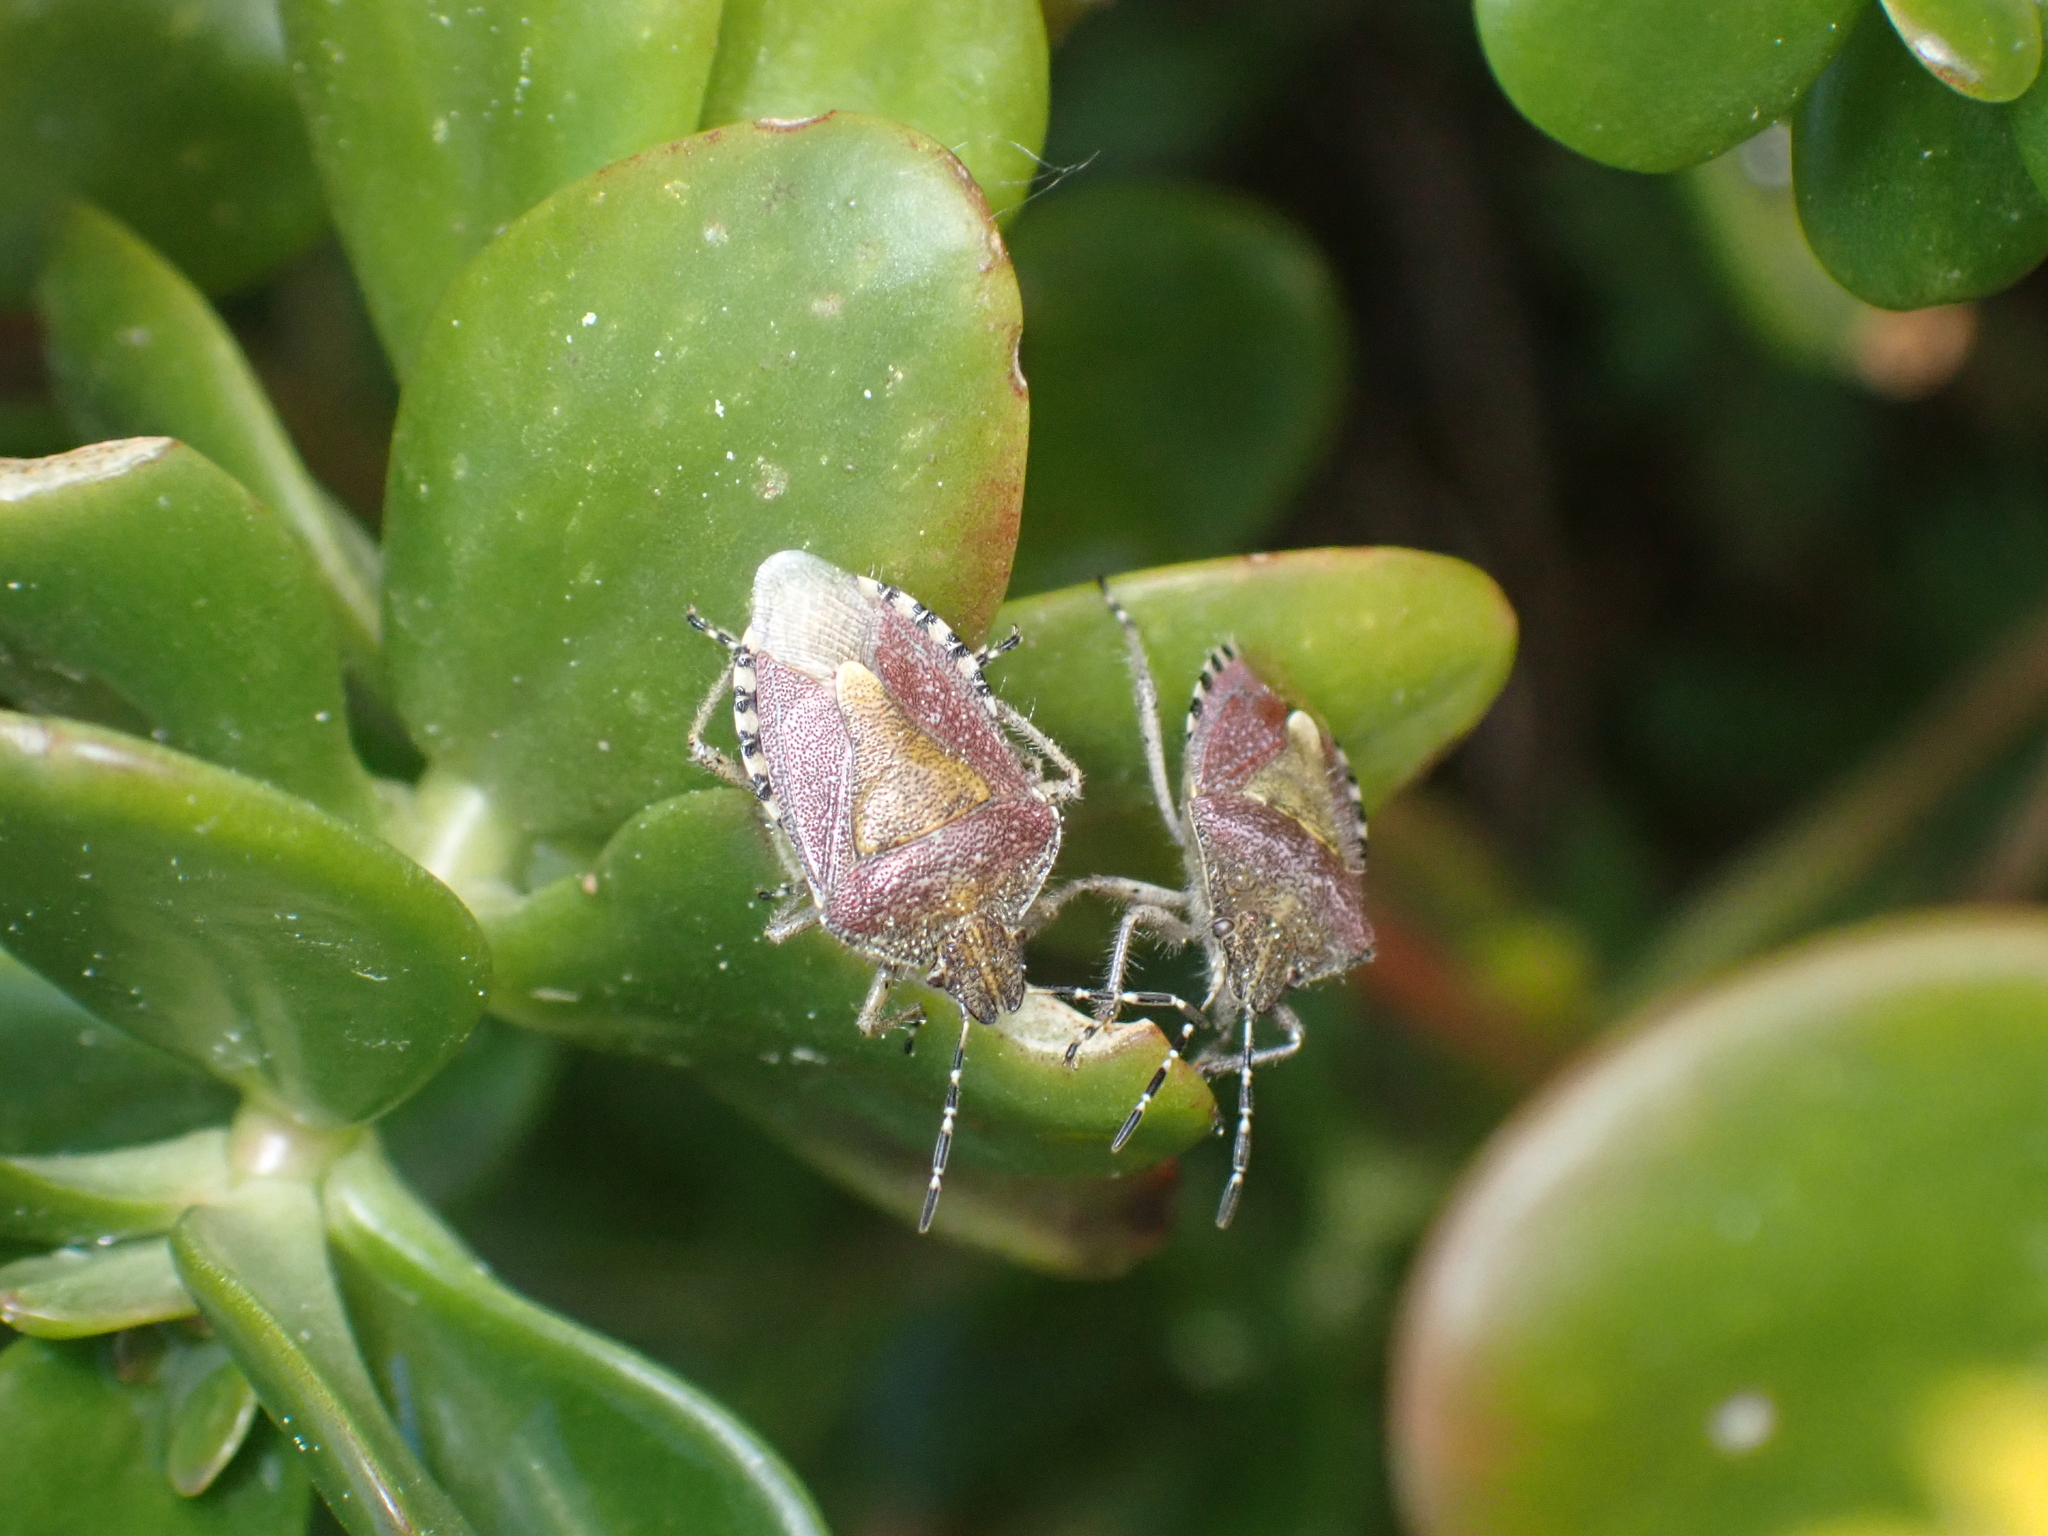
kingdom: Animalia
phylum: Arthropoda
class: Insecta
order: Hemiptera
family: Pentatomidae
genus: Dolycoris
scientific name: Dolycoris baccarum
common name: Sloe bug
